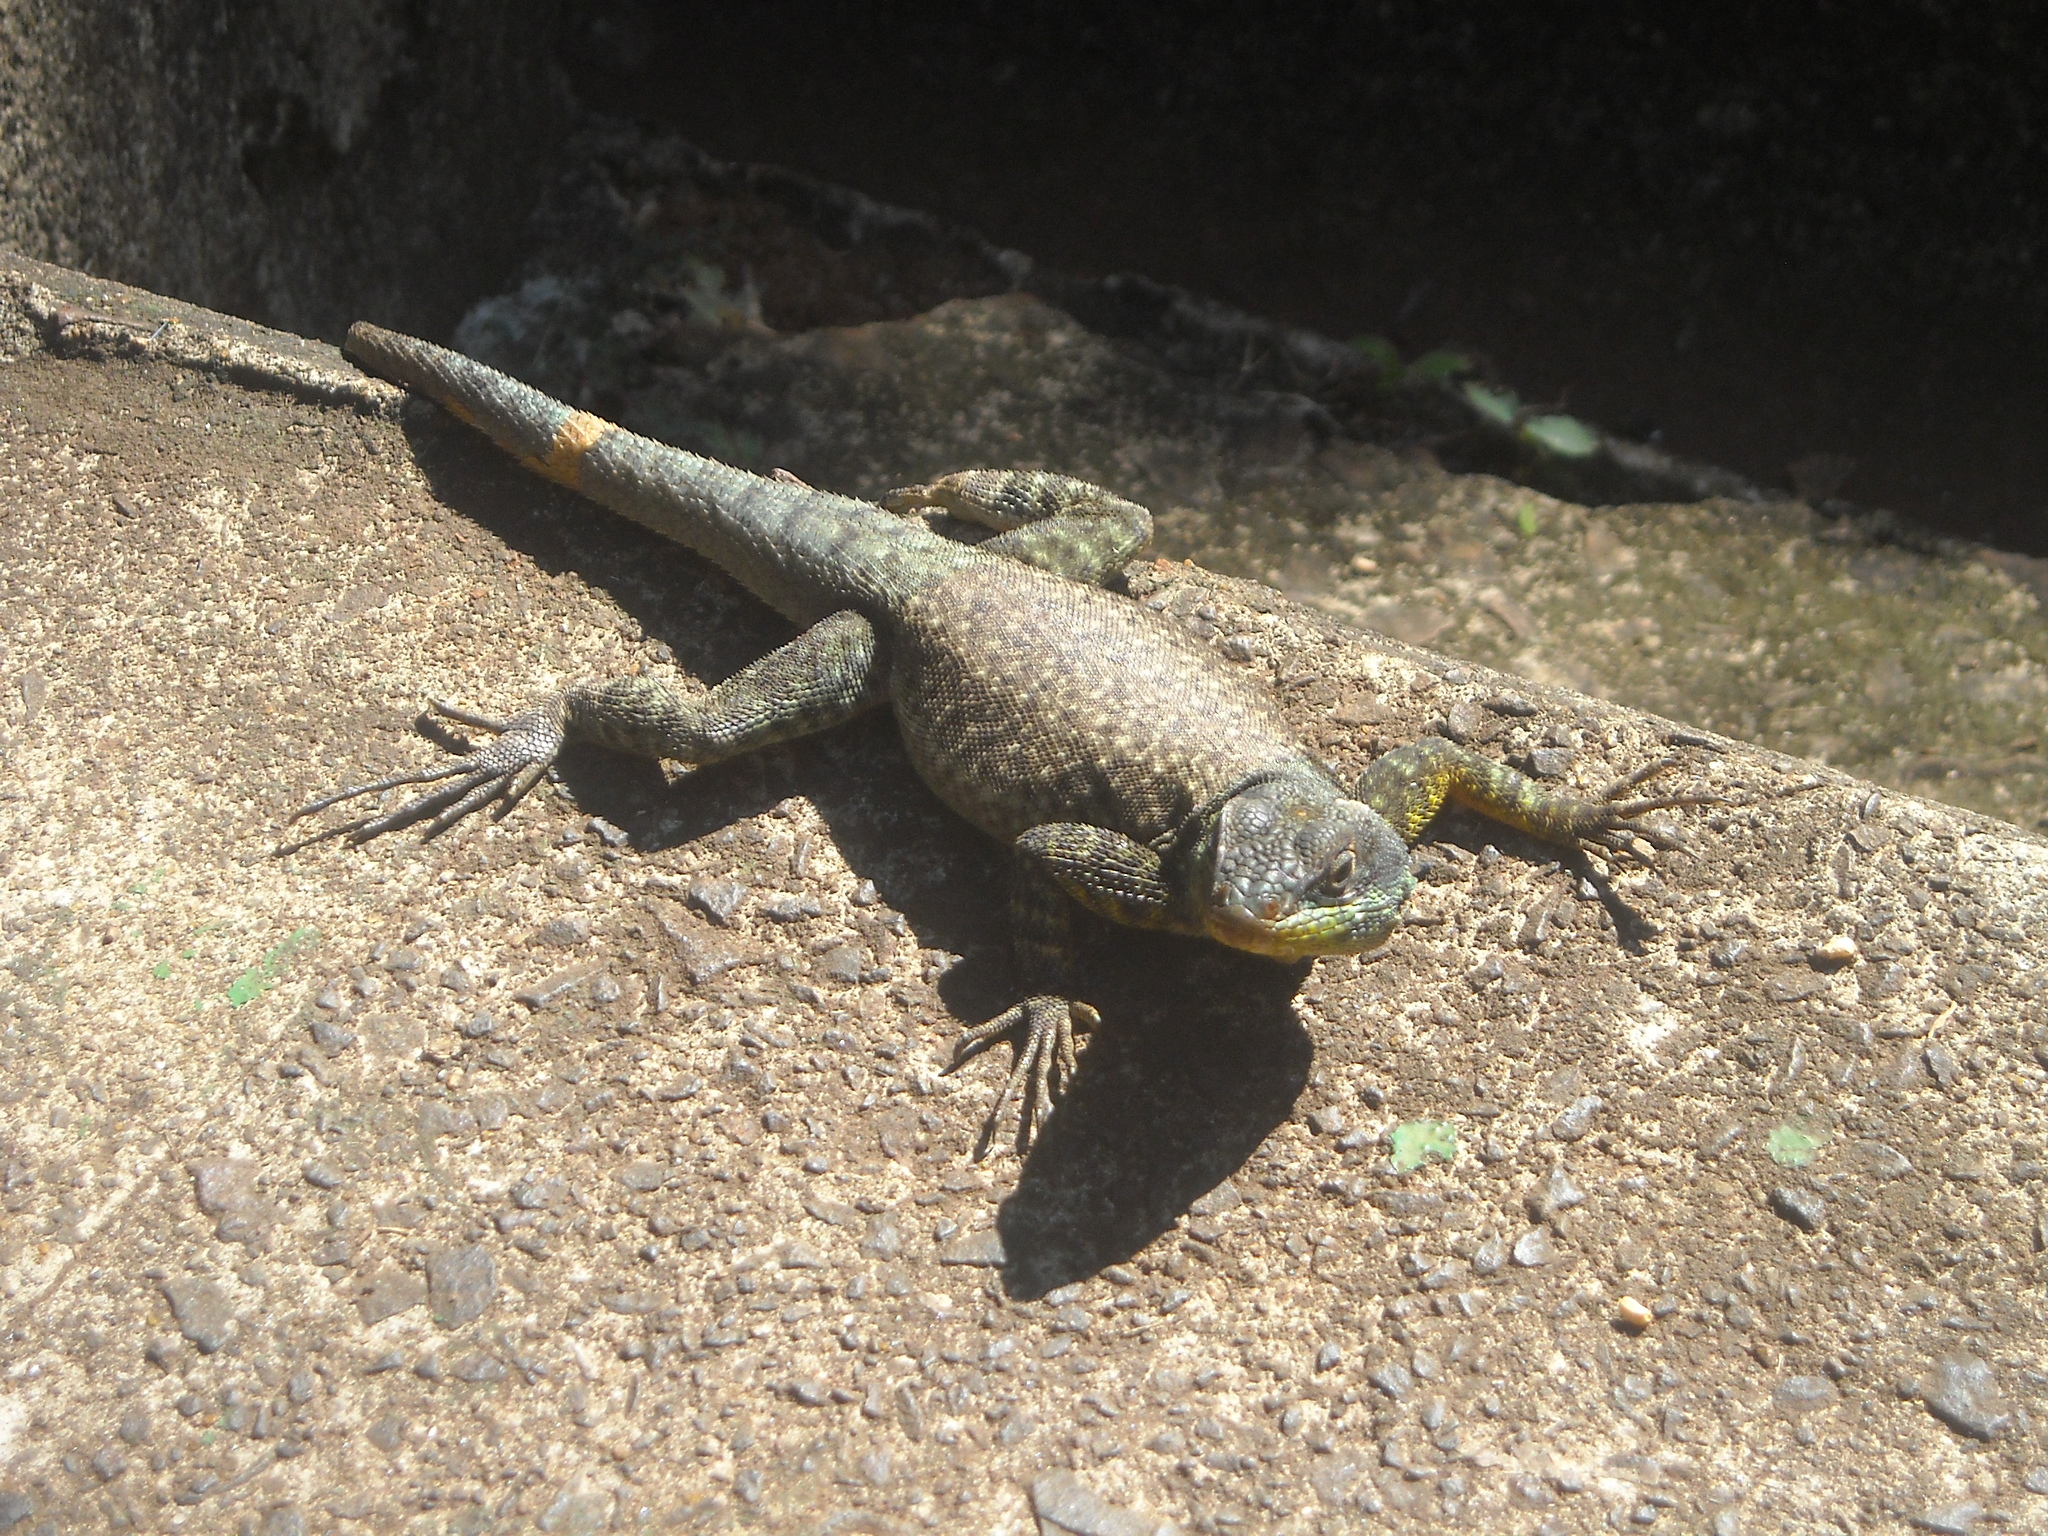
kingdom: Animalia
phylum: Chordata
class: Squamata
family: Tropiduridae
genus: Tropidurus
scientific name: Tropidurus catalanensis
